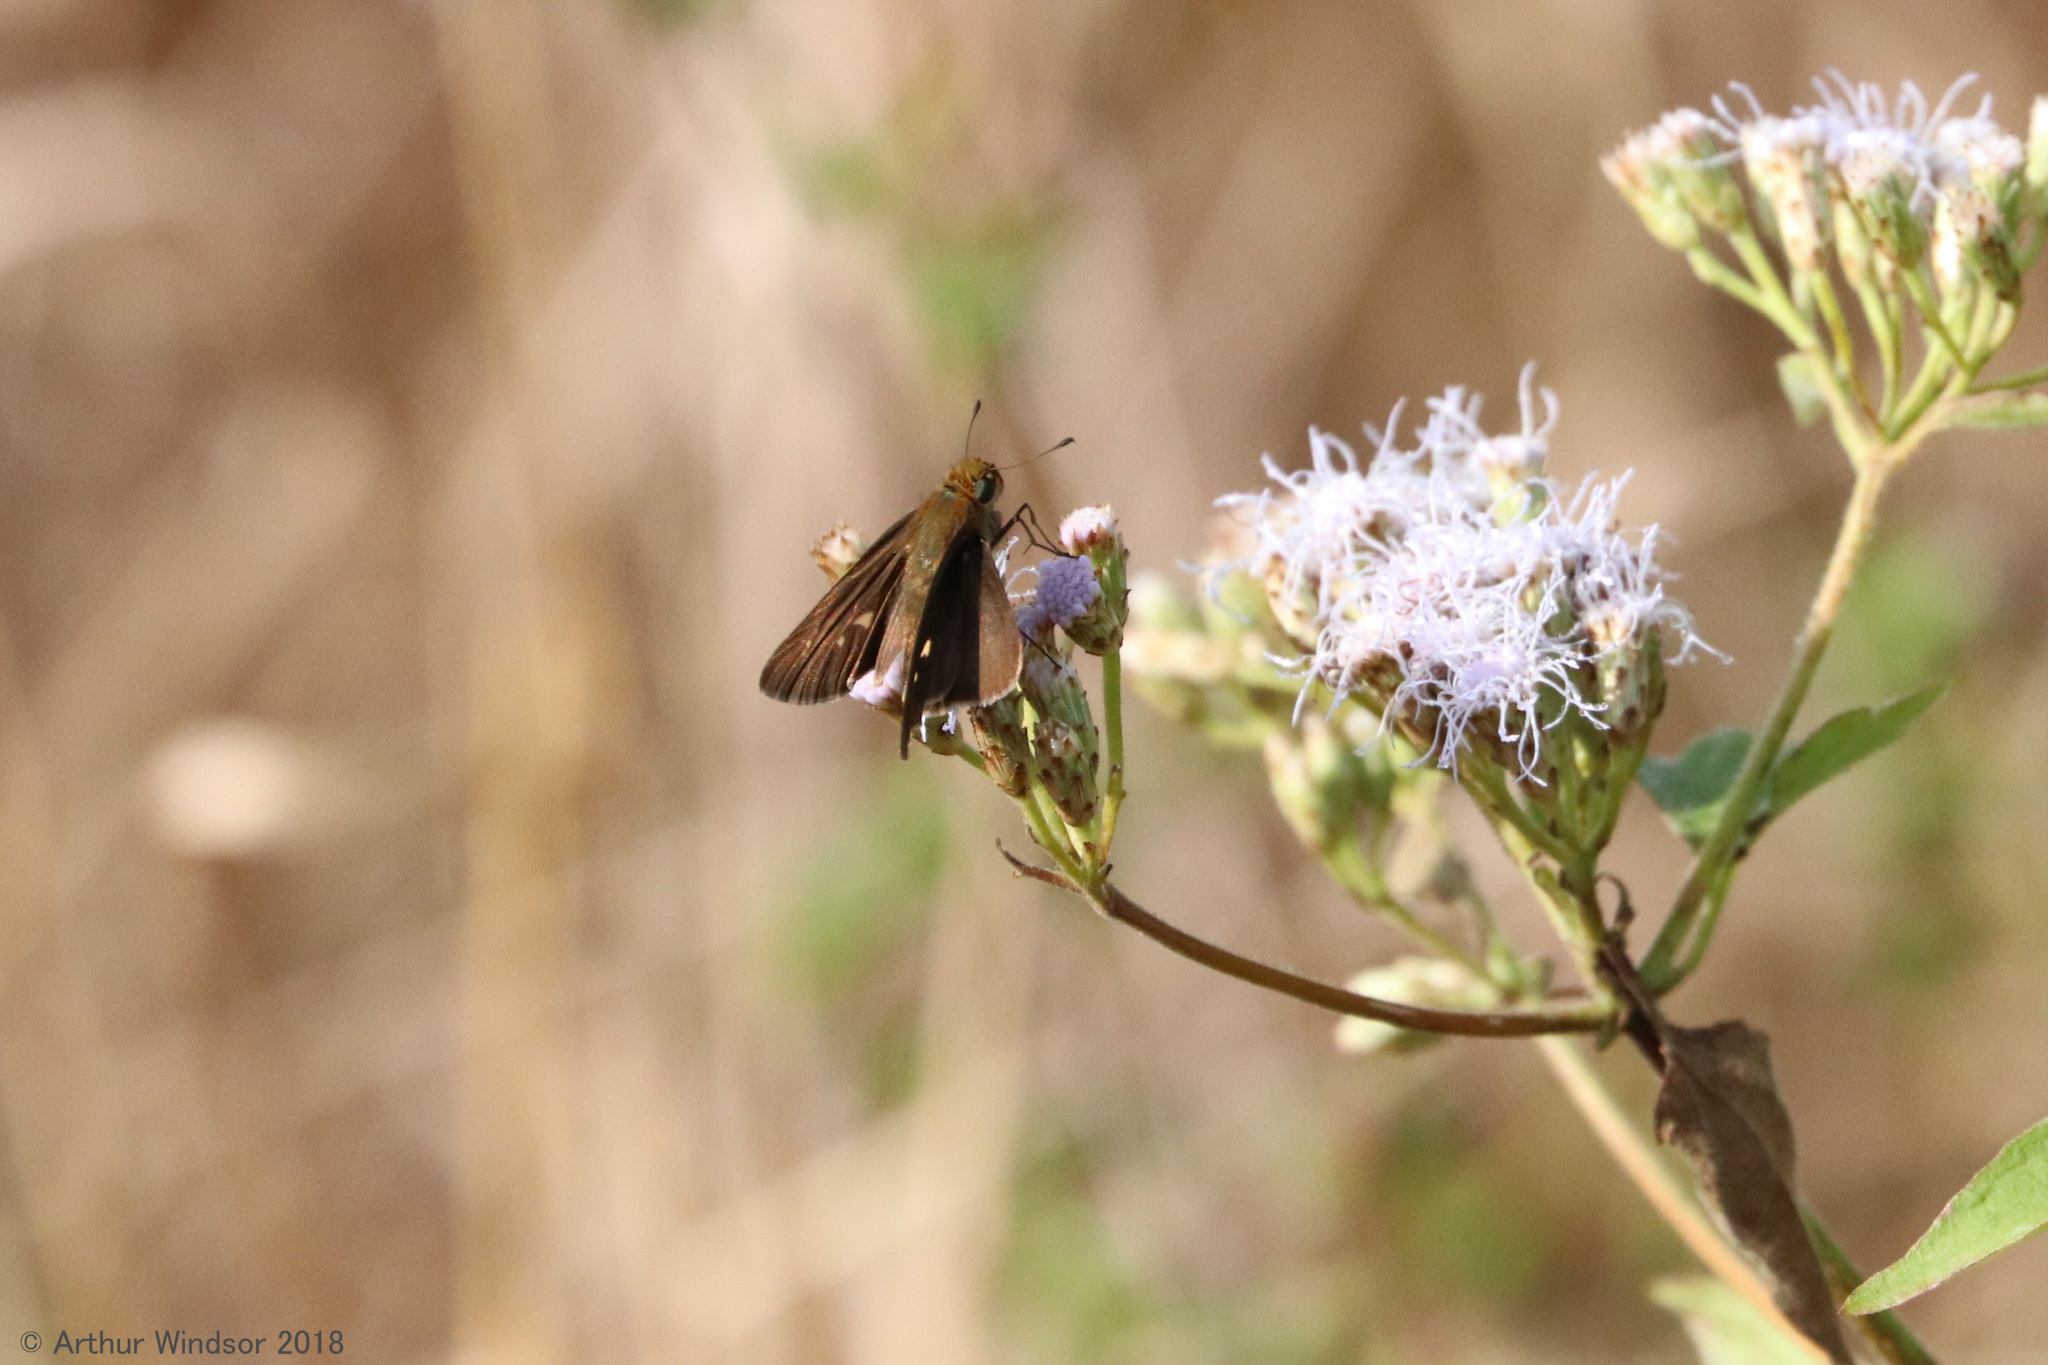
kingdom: Animalia
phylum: Arthropoda
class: Insecta
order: Lepidoptera
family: Hesperiidae
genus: Panoquina
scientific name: Panoquina ocola
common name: Ocola skipper
